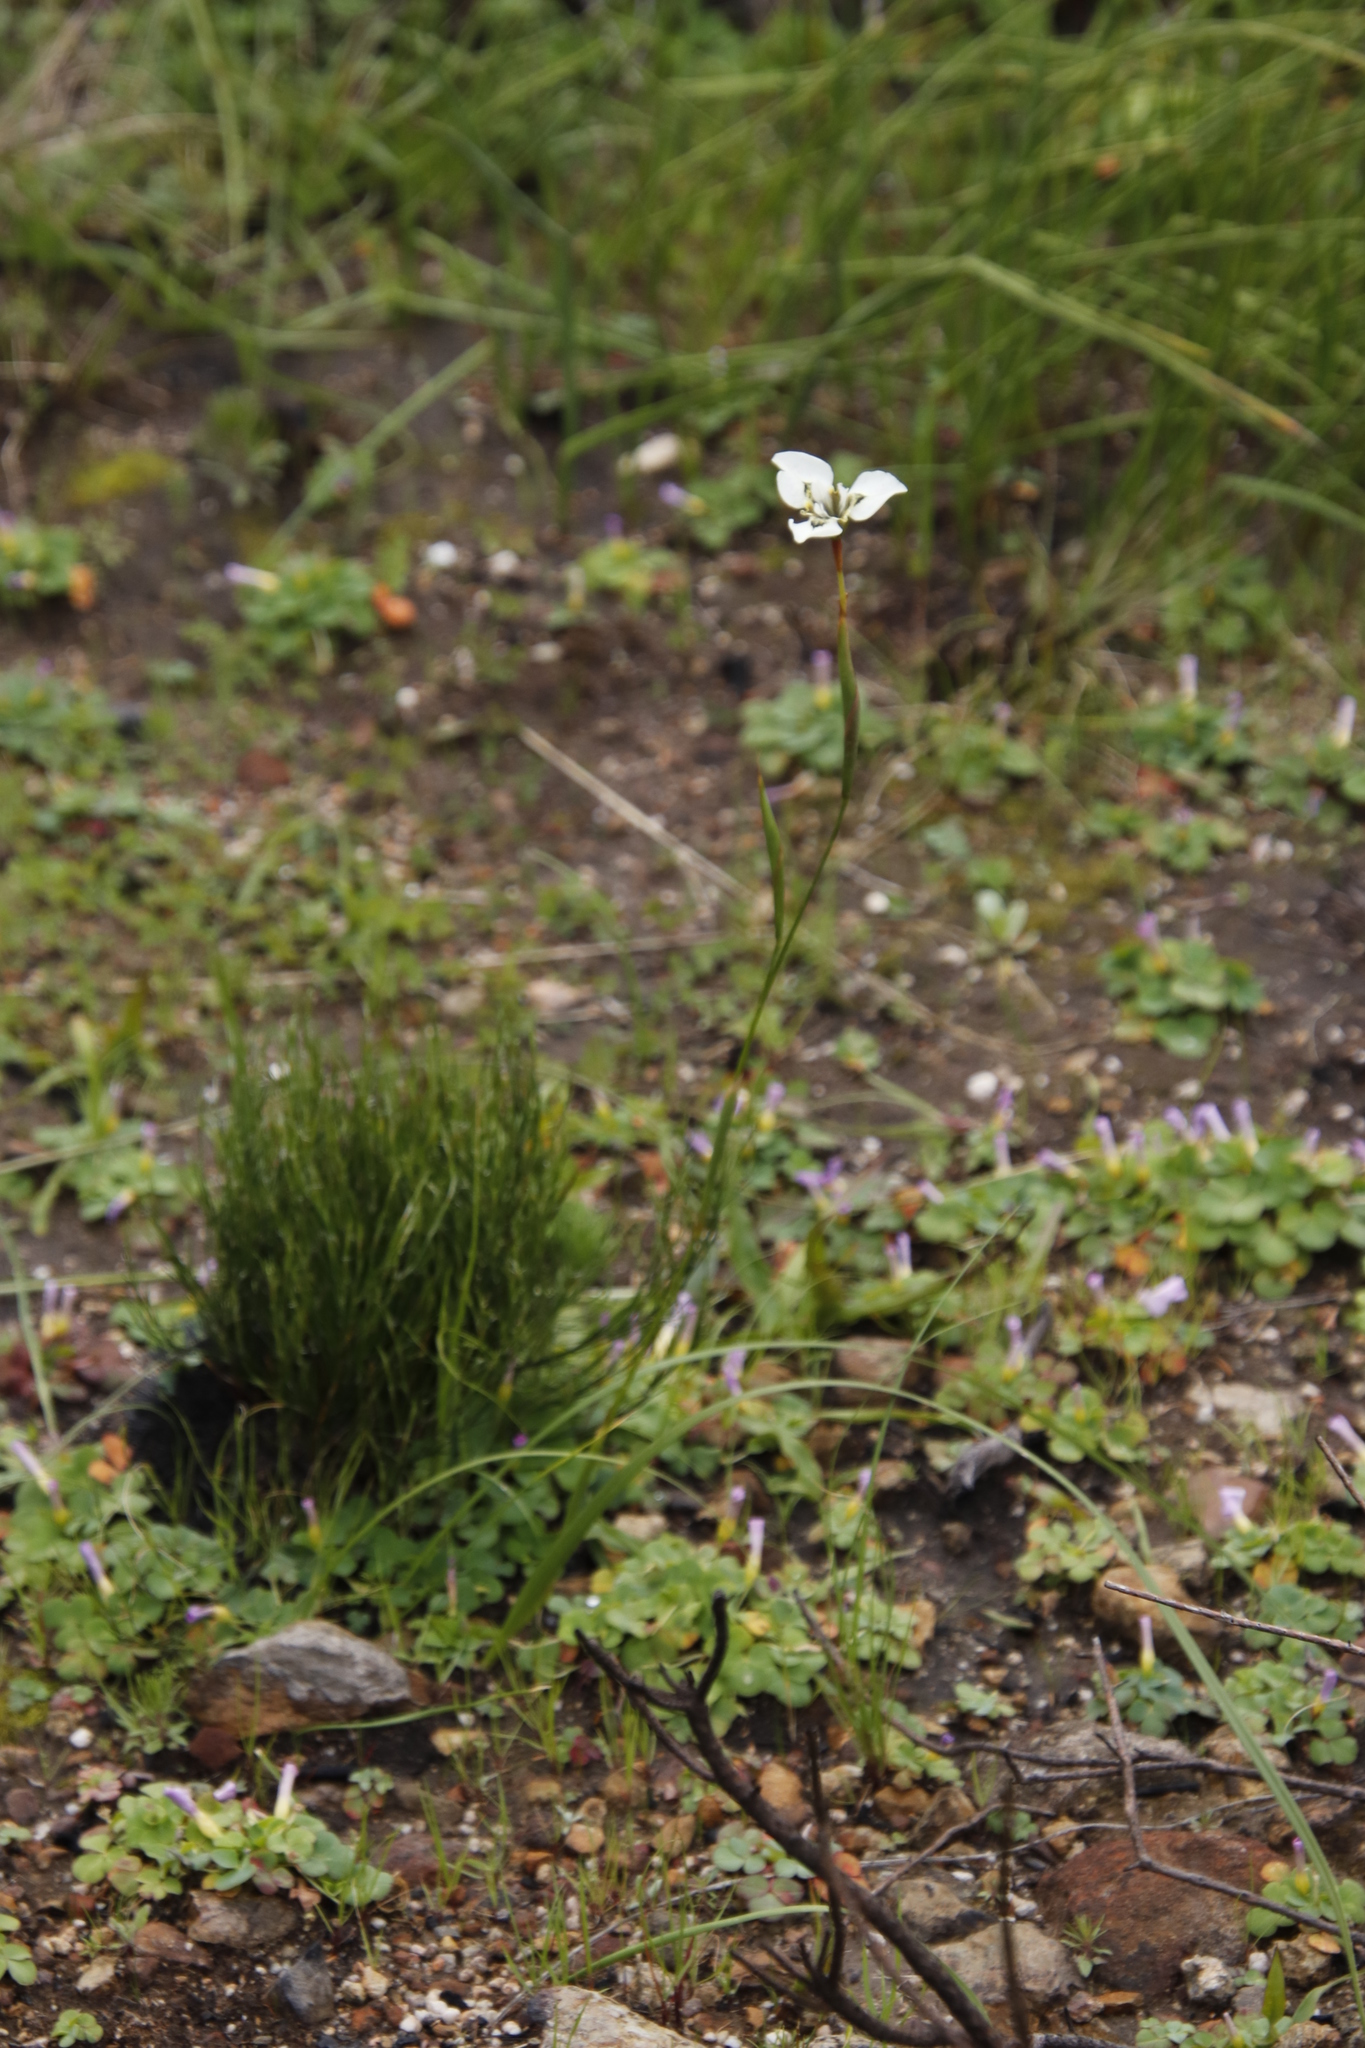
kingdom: Plantae
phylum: Tracheophyta
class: Liliopsida
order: Asparagales
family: Iridaceae
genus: Moraea
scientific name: Moraea tricuspidata
